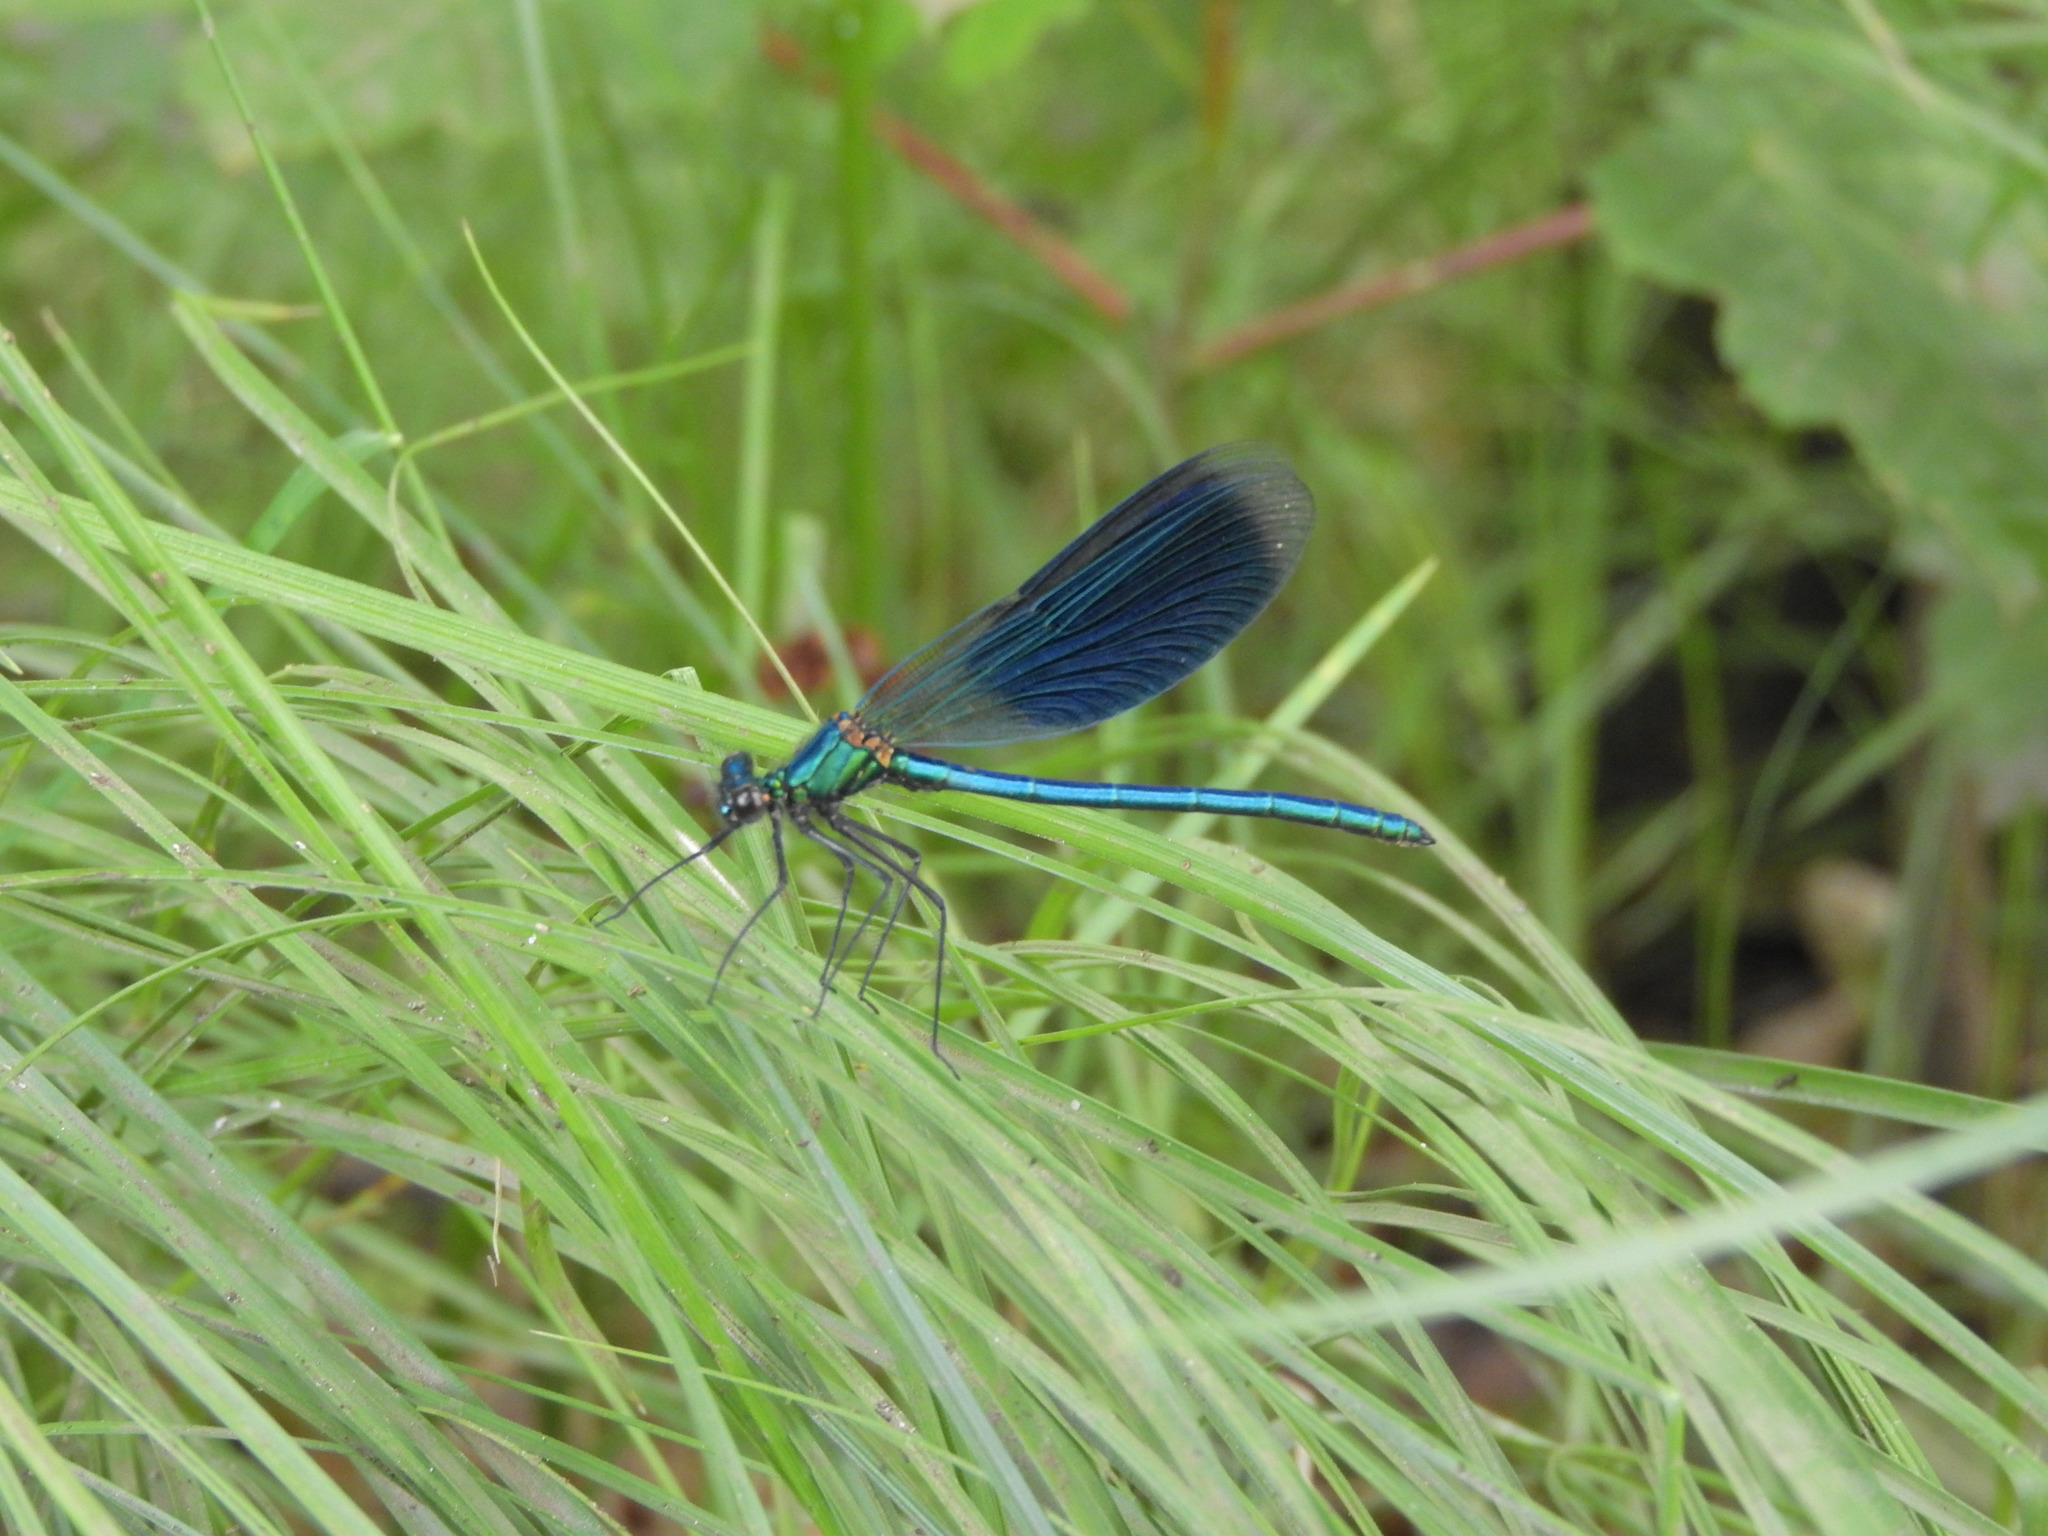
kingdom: Animalia
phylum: Arthropoda
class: Insecta
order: Odonata
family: Calopterygidae
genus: Calopteryx
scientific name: Calopteryx splendens
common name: Banded demoiselle
